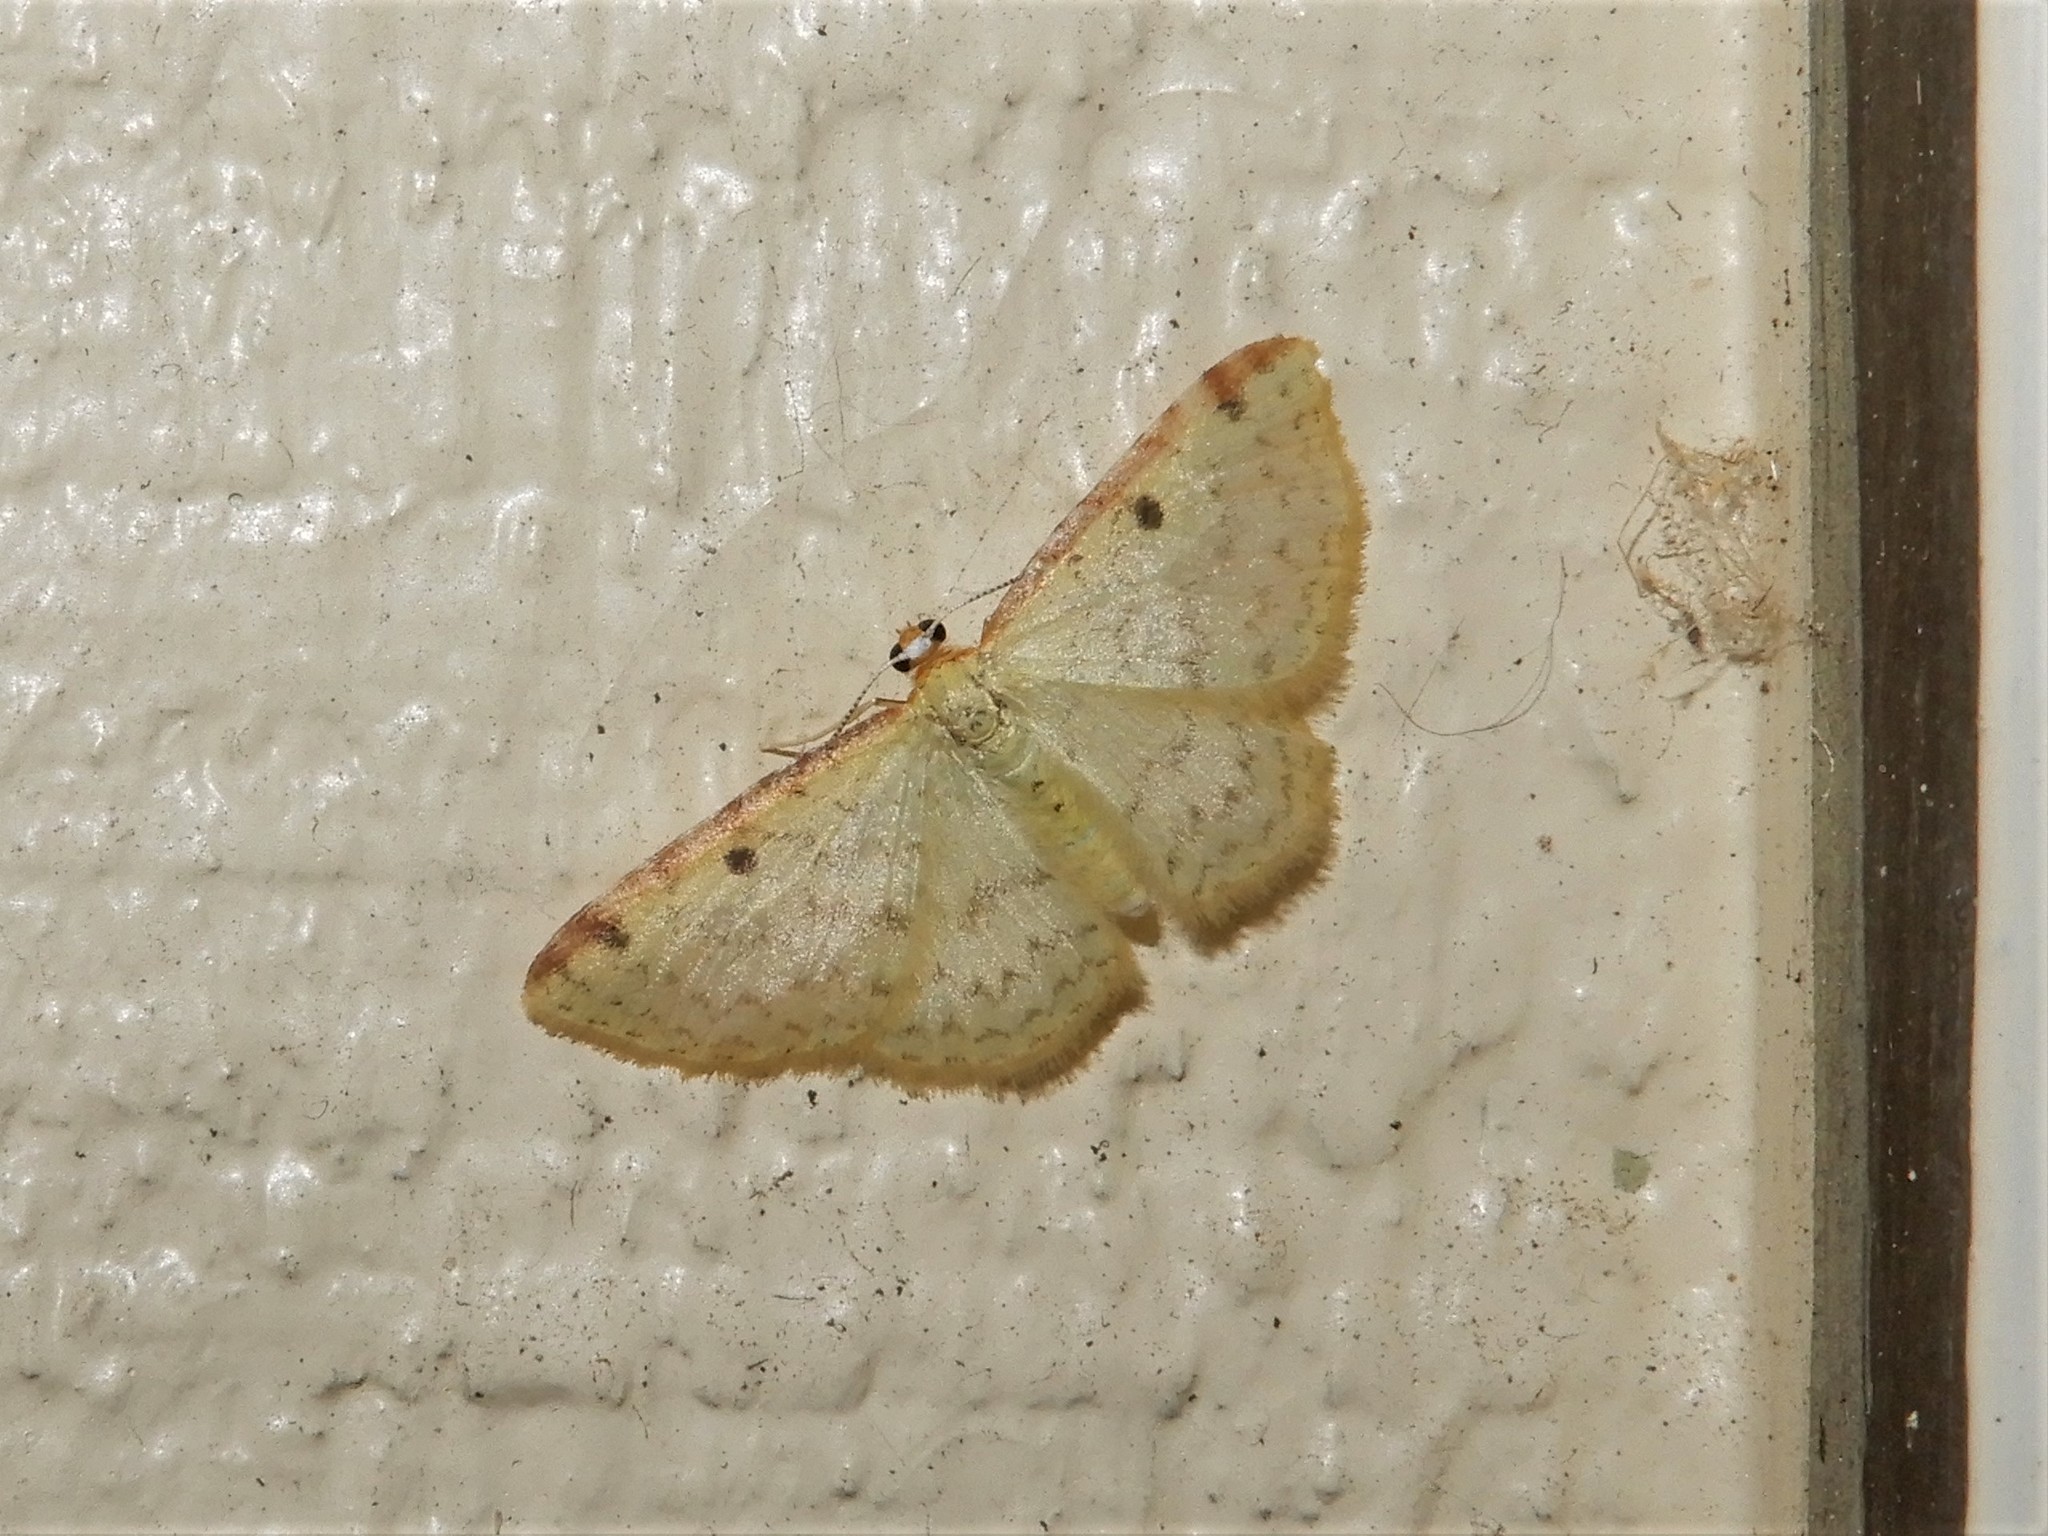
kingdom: Animalia
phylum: Arthropoda
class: Insecta
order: Lepidoptera
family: Geometridae
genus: Epiphryne
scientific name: Epiphryne undosata
